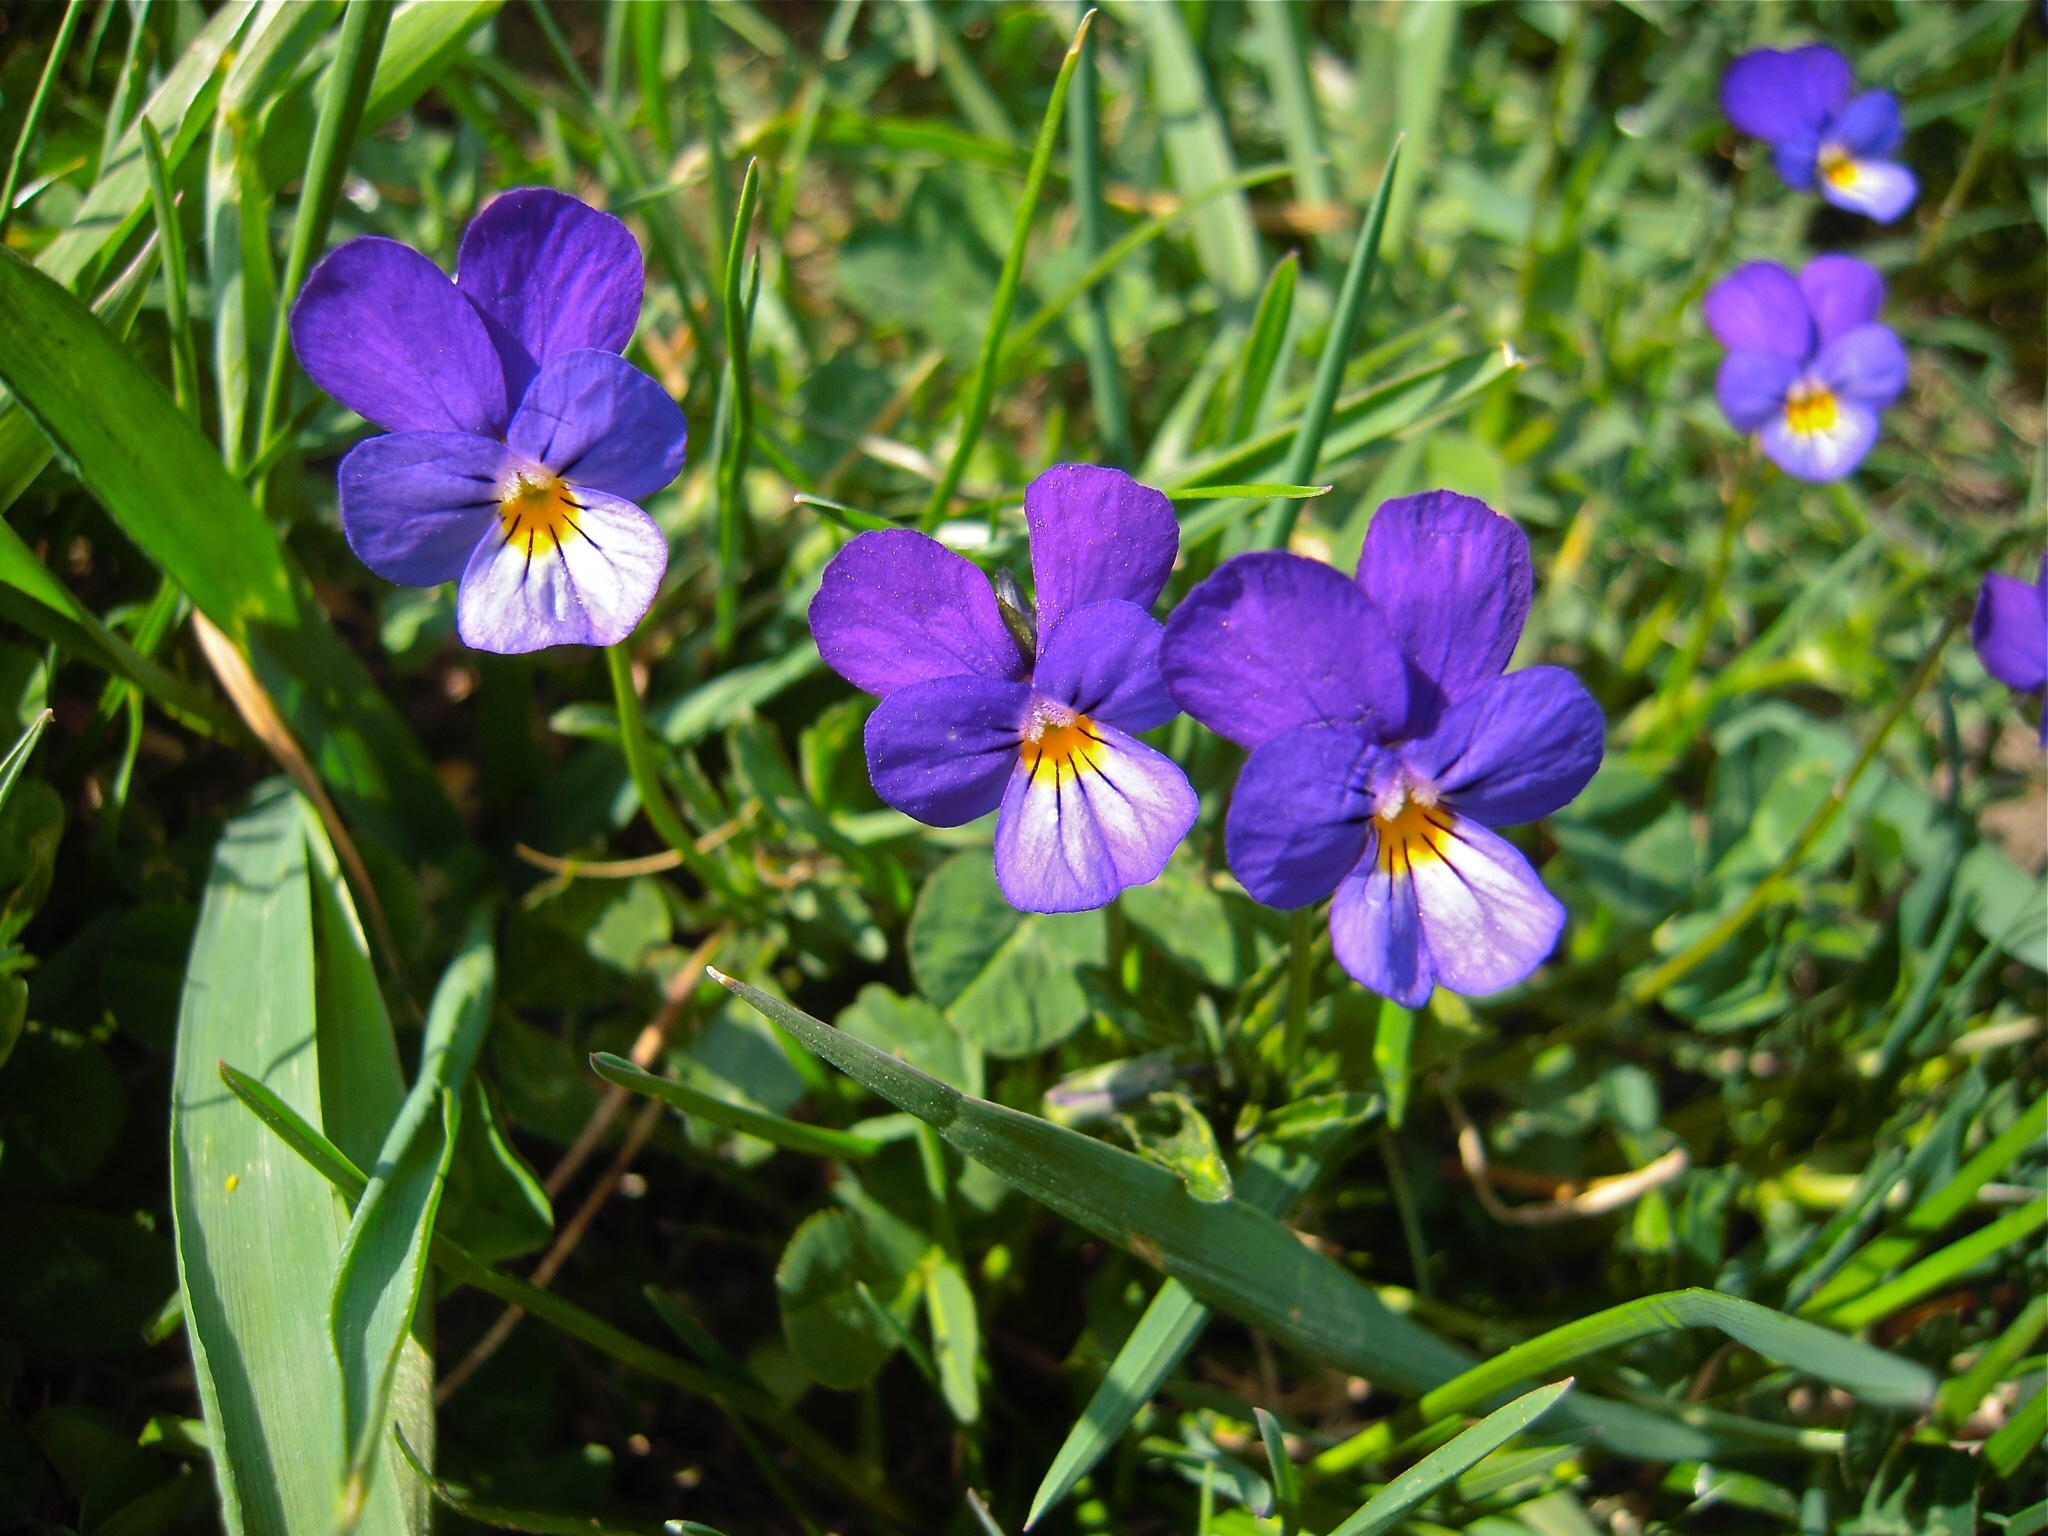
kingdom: Plantae
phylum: Tracheophyta
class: Magnoliopsida
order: Malpighiales
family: Violaceae
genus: Viola
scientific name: Viola tricolor
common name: Pansy
